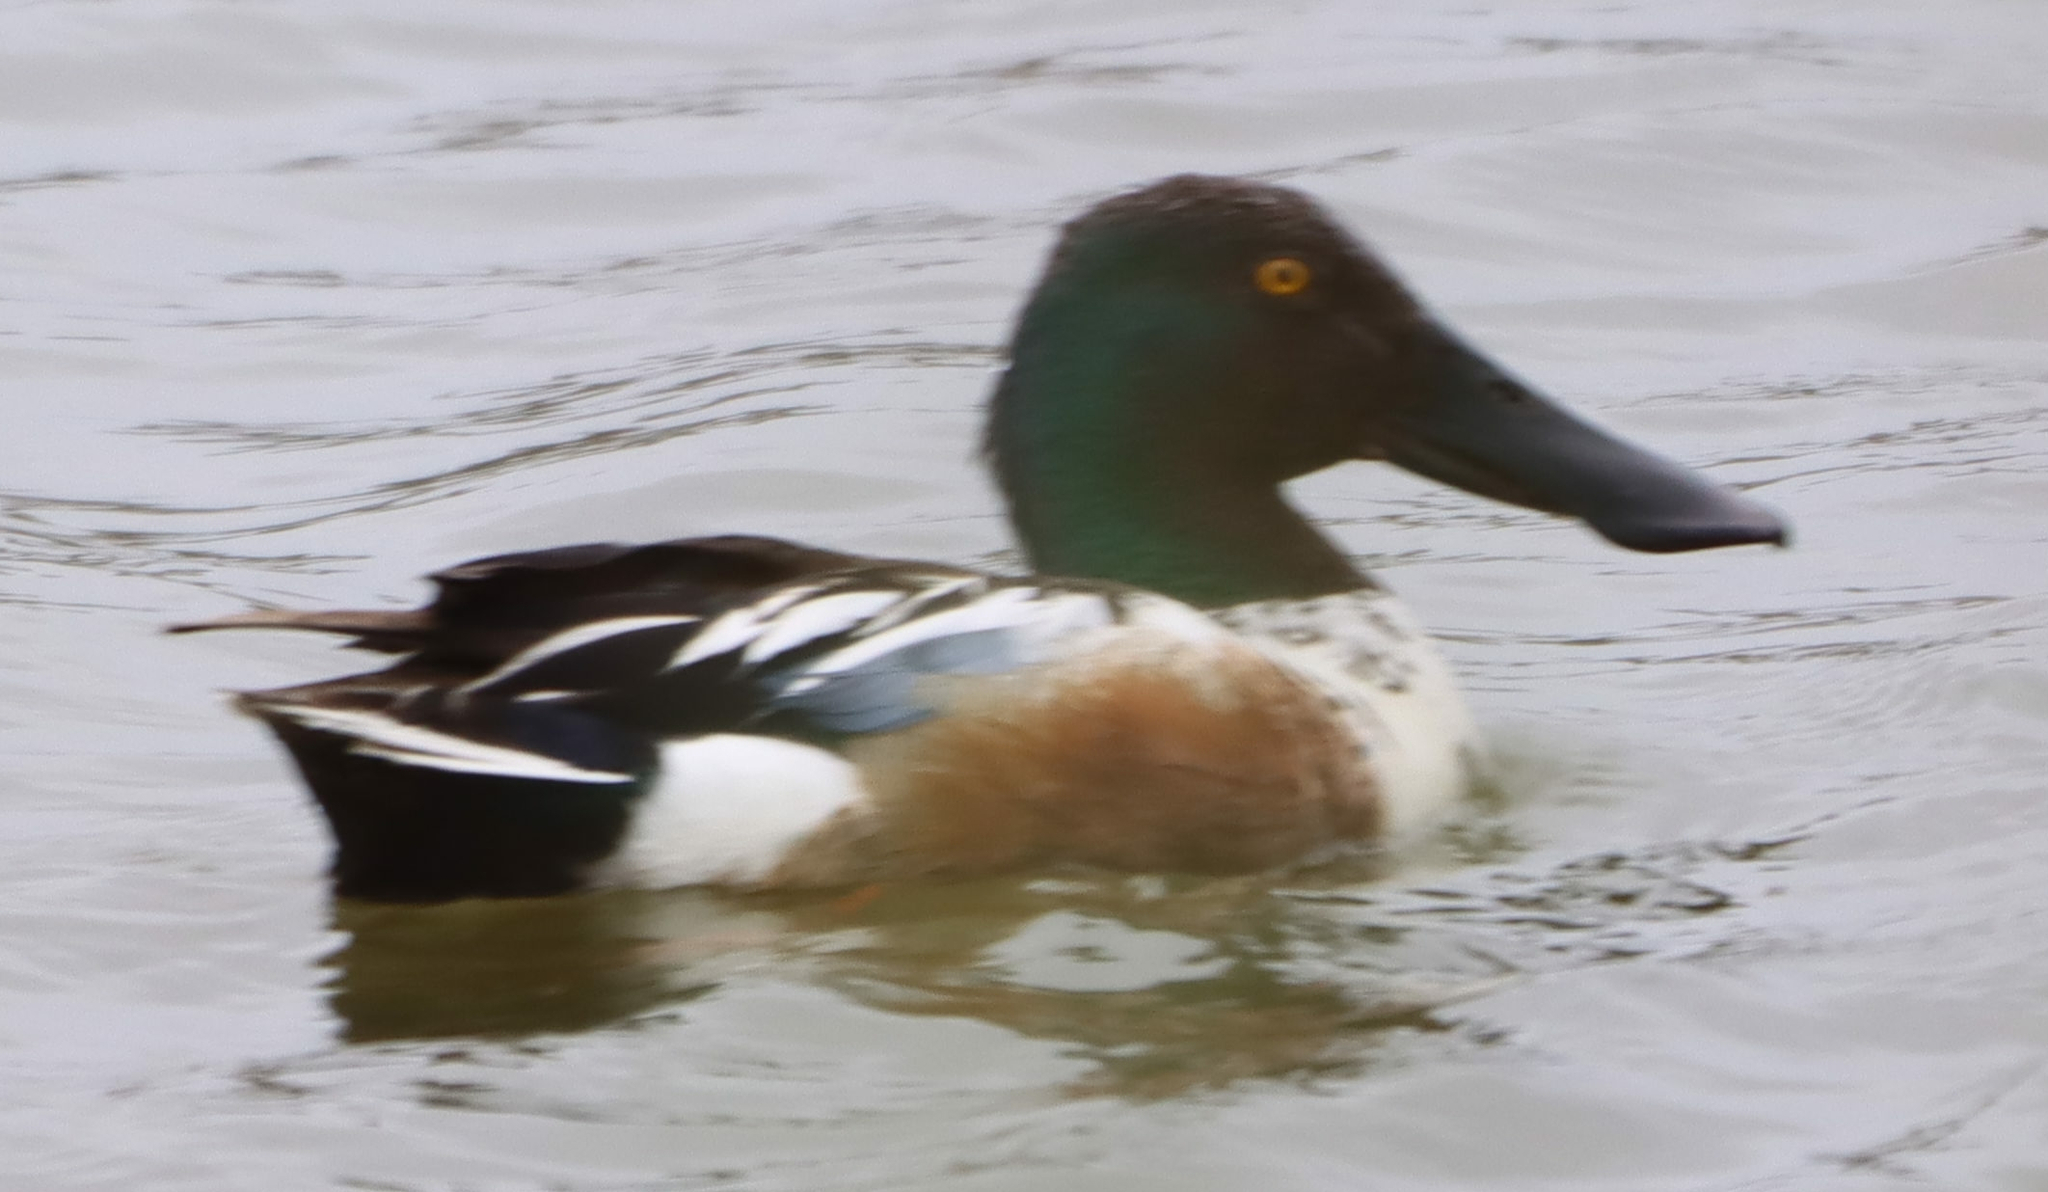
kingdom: Animalia
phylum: Chordata
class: Aves
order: Anseriformes
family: Anatidae
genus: Spatula
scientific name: Spatula clypeata
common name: Northern shoveler
